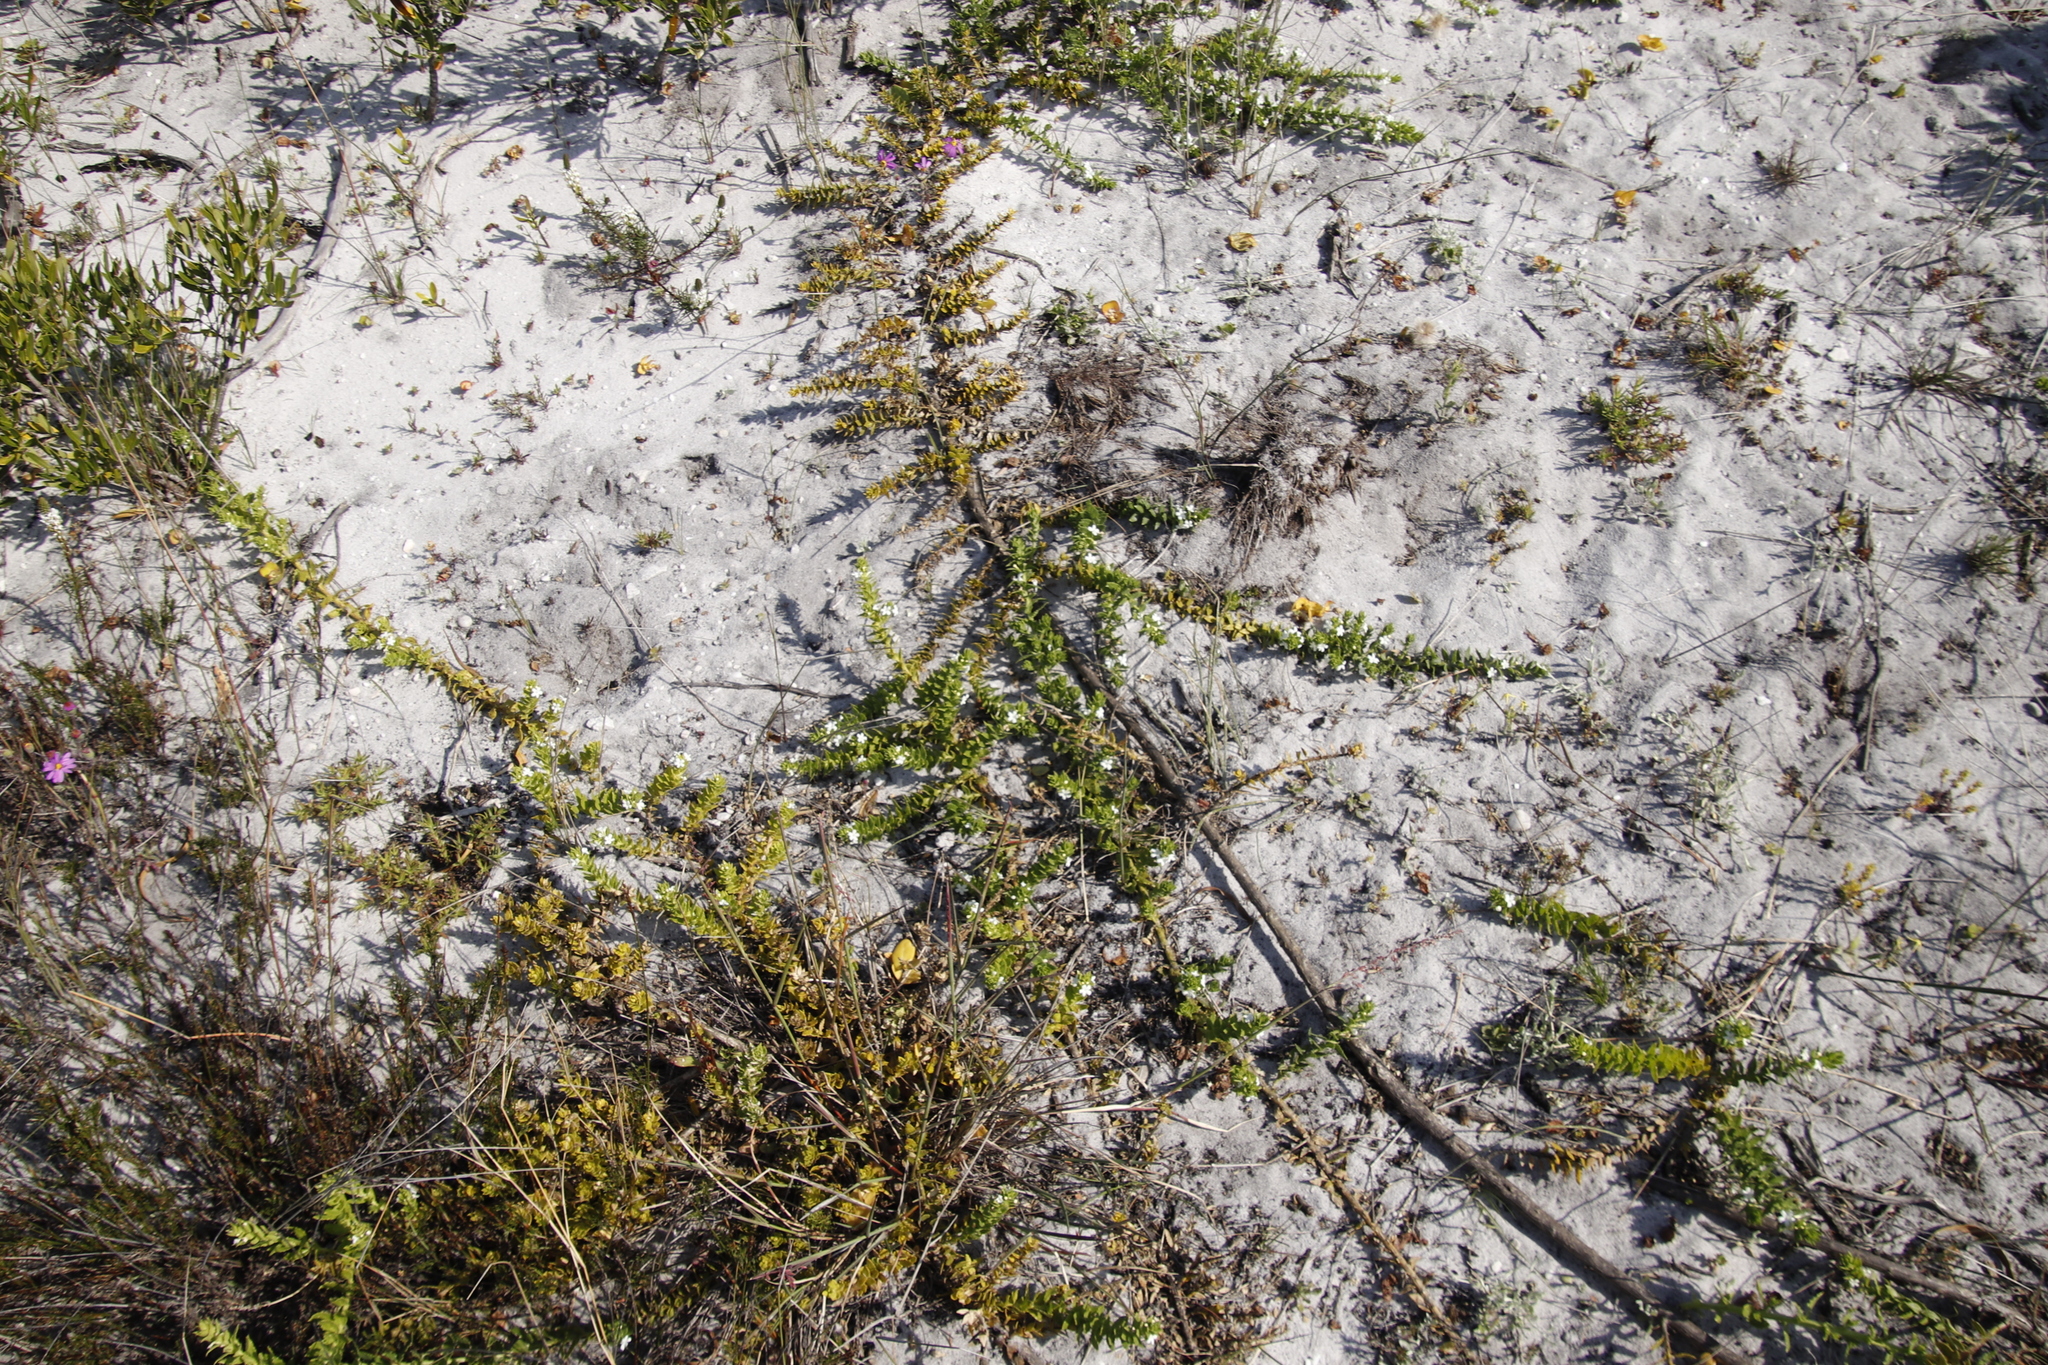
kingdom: Plantae
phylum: Tracheophyta
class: Magnoliopsida
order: Lamiales
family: Scrophulariaceae
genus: Oftia
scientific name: Oftia africana
